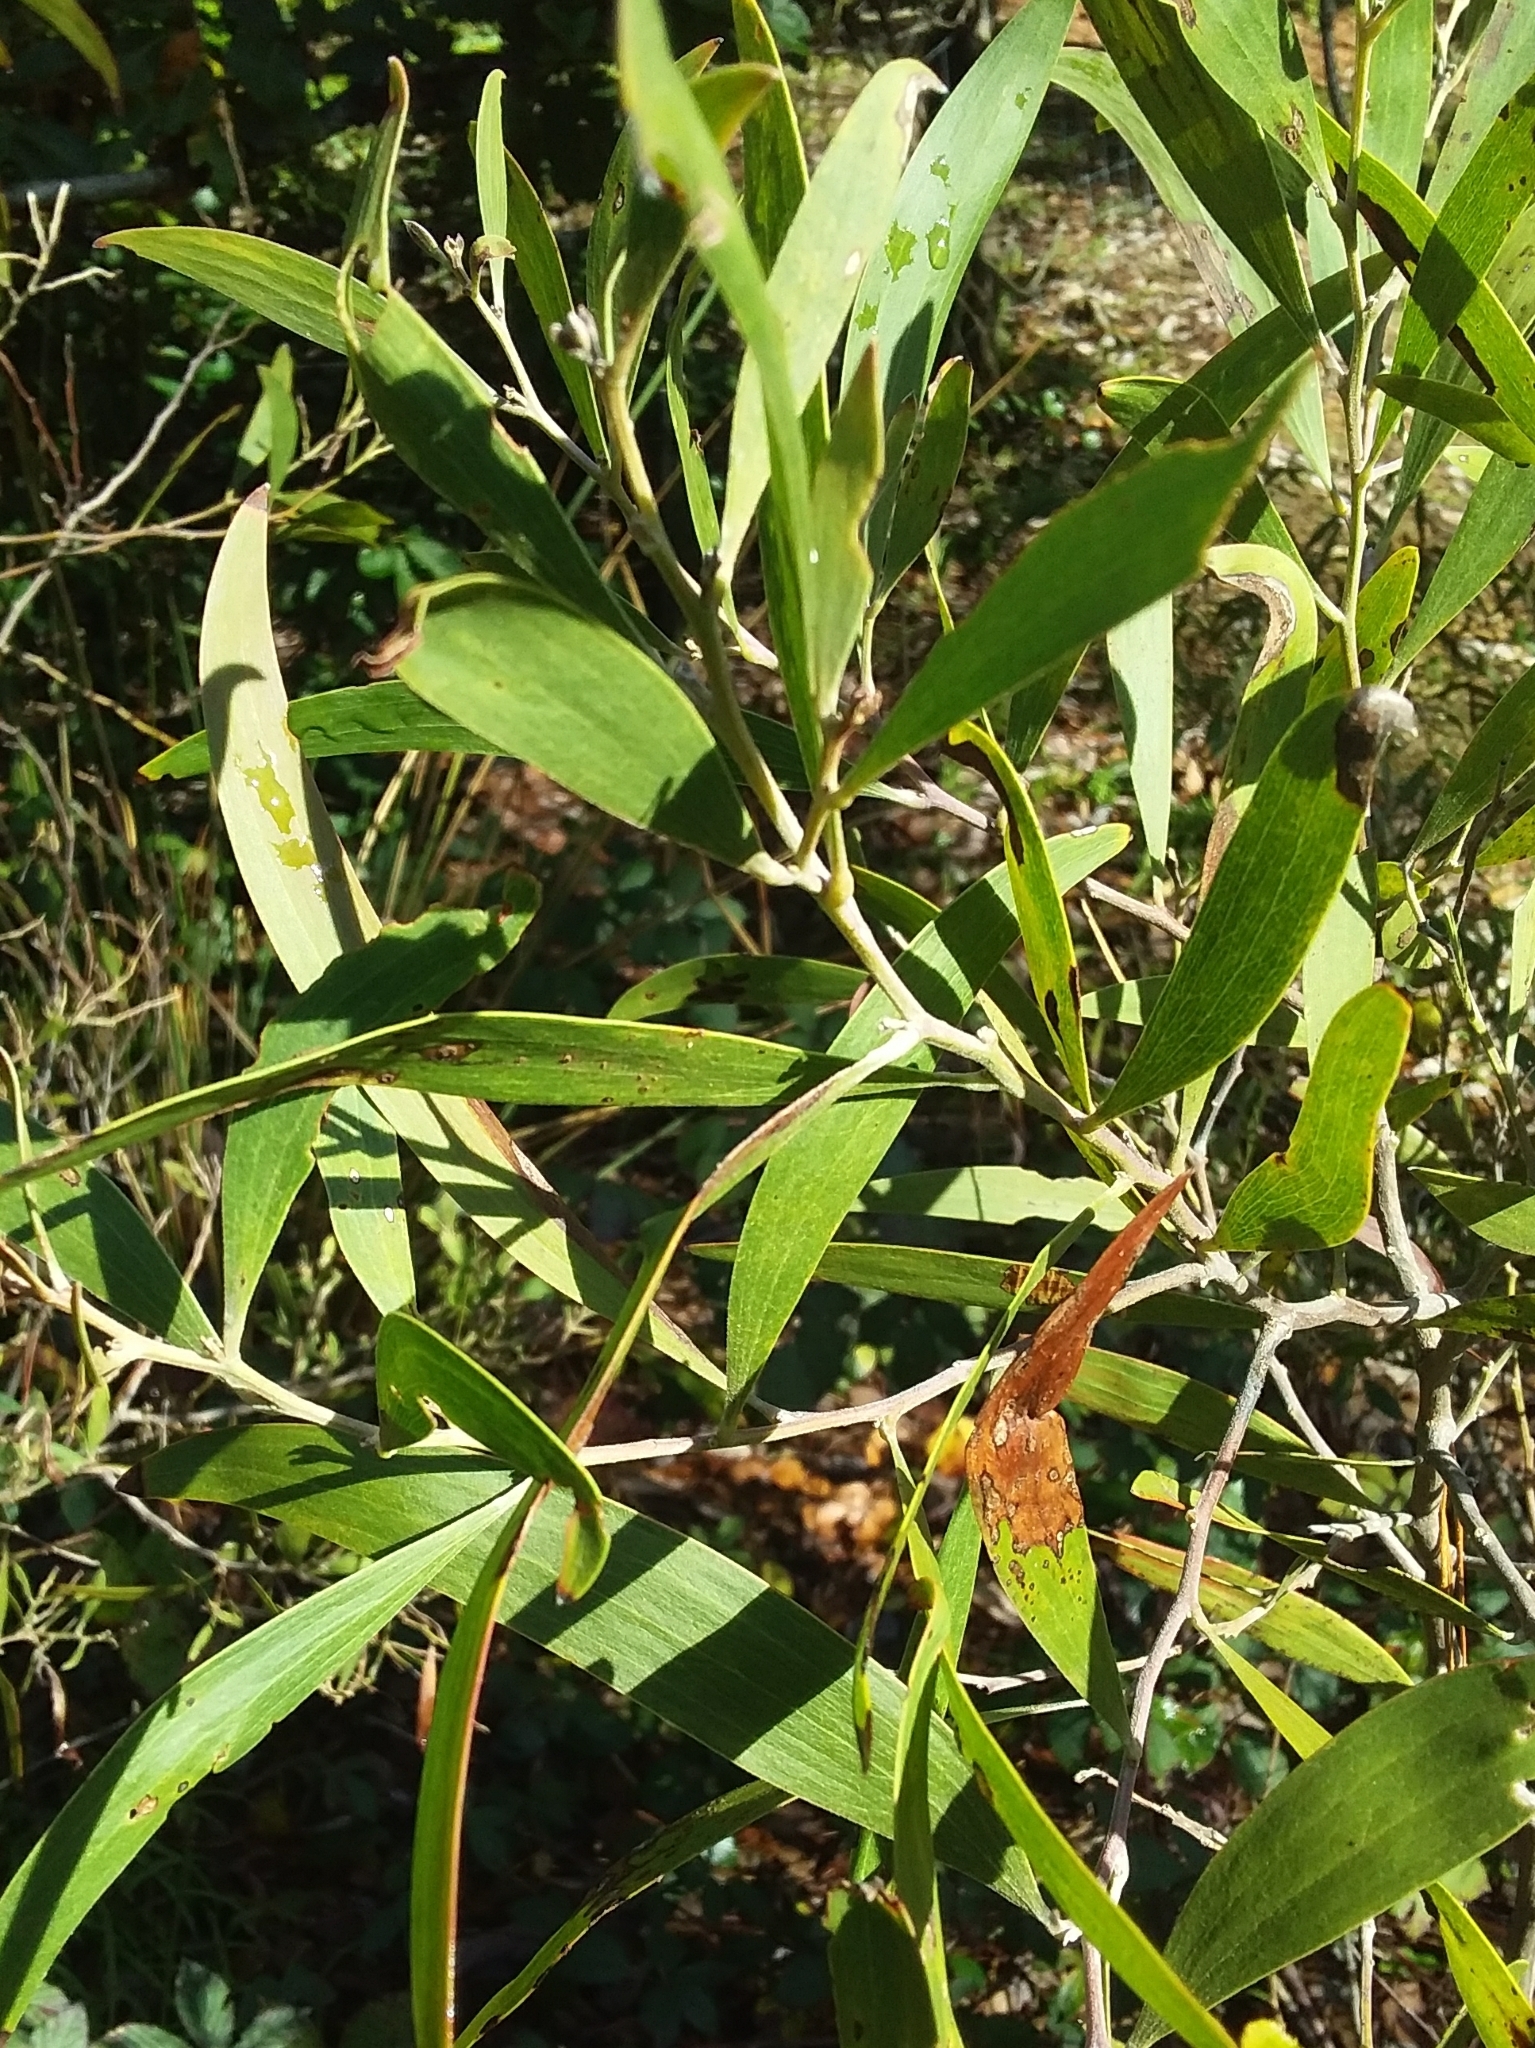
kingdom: Plantae
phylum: Tracheophyta
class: Magnoliopsida
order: Fabales
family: Fabaceae
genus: Acacia
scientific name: Acacia melanoxylon
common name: Blackwood
